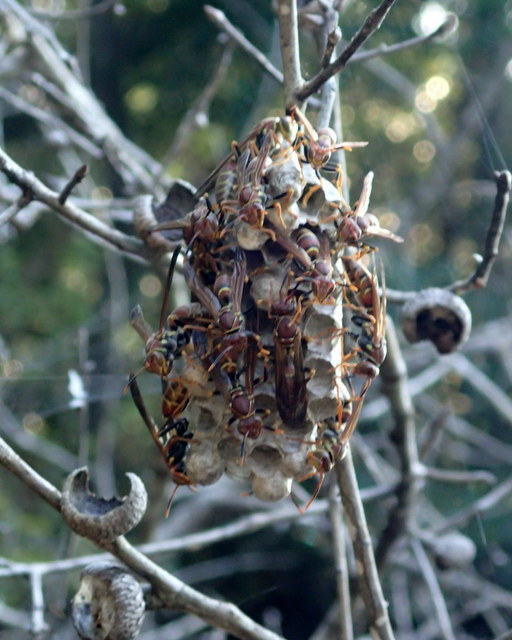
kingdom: Animalia
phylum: Arthropoda
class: Insecta
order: Hymenoptera
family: Eumenidae
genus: Polistes
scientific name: Polistes bahamensis
